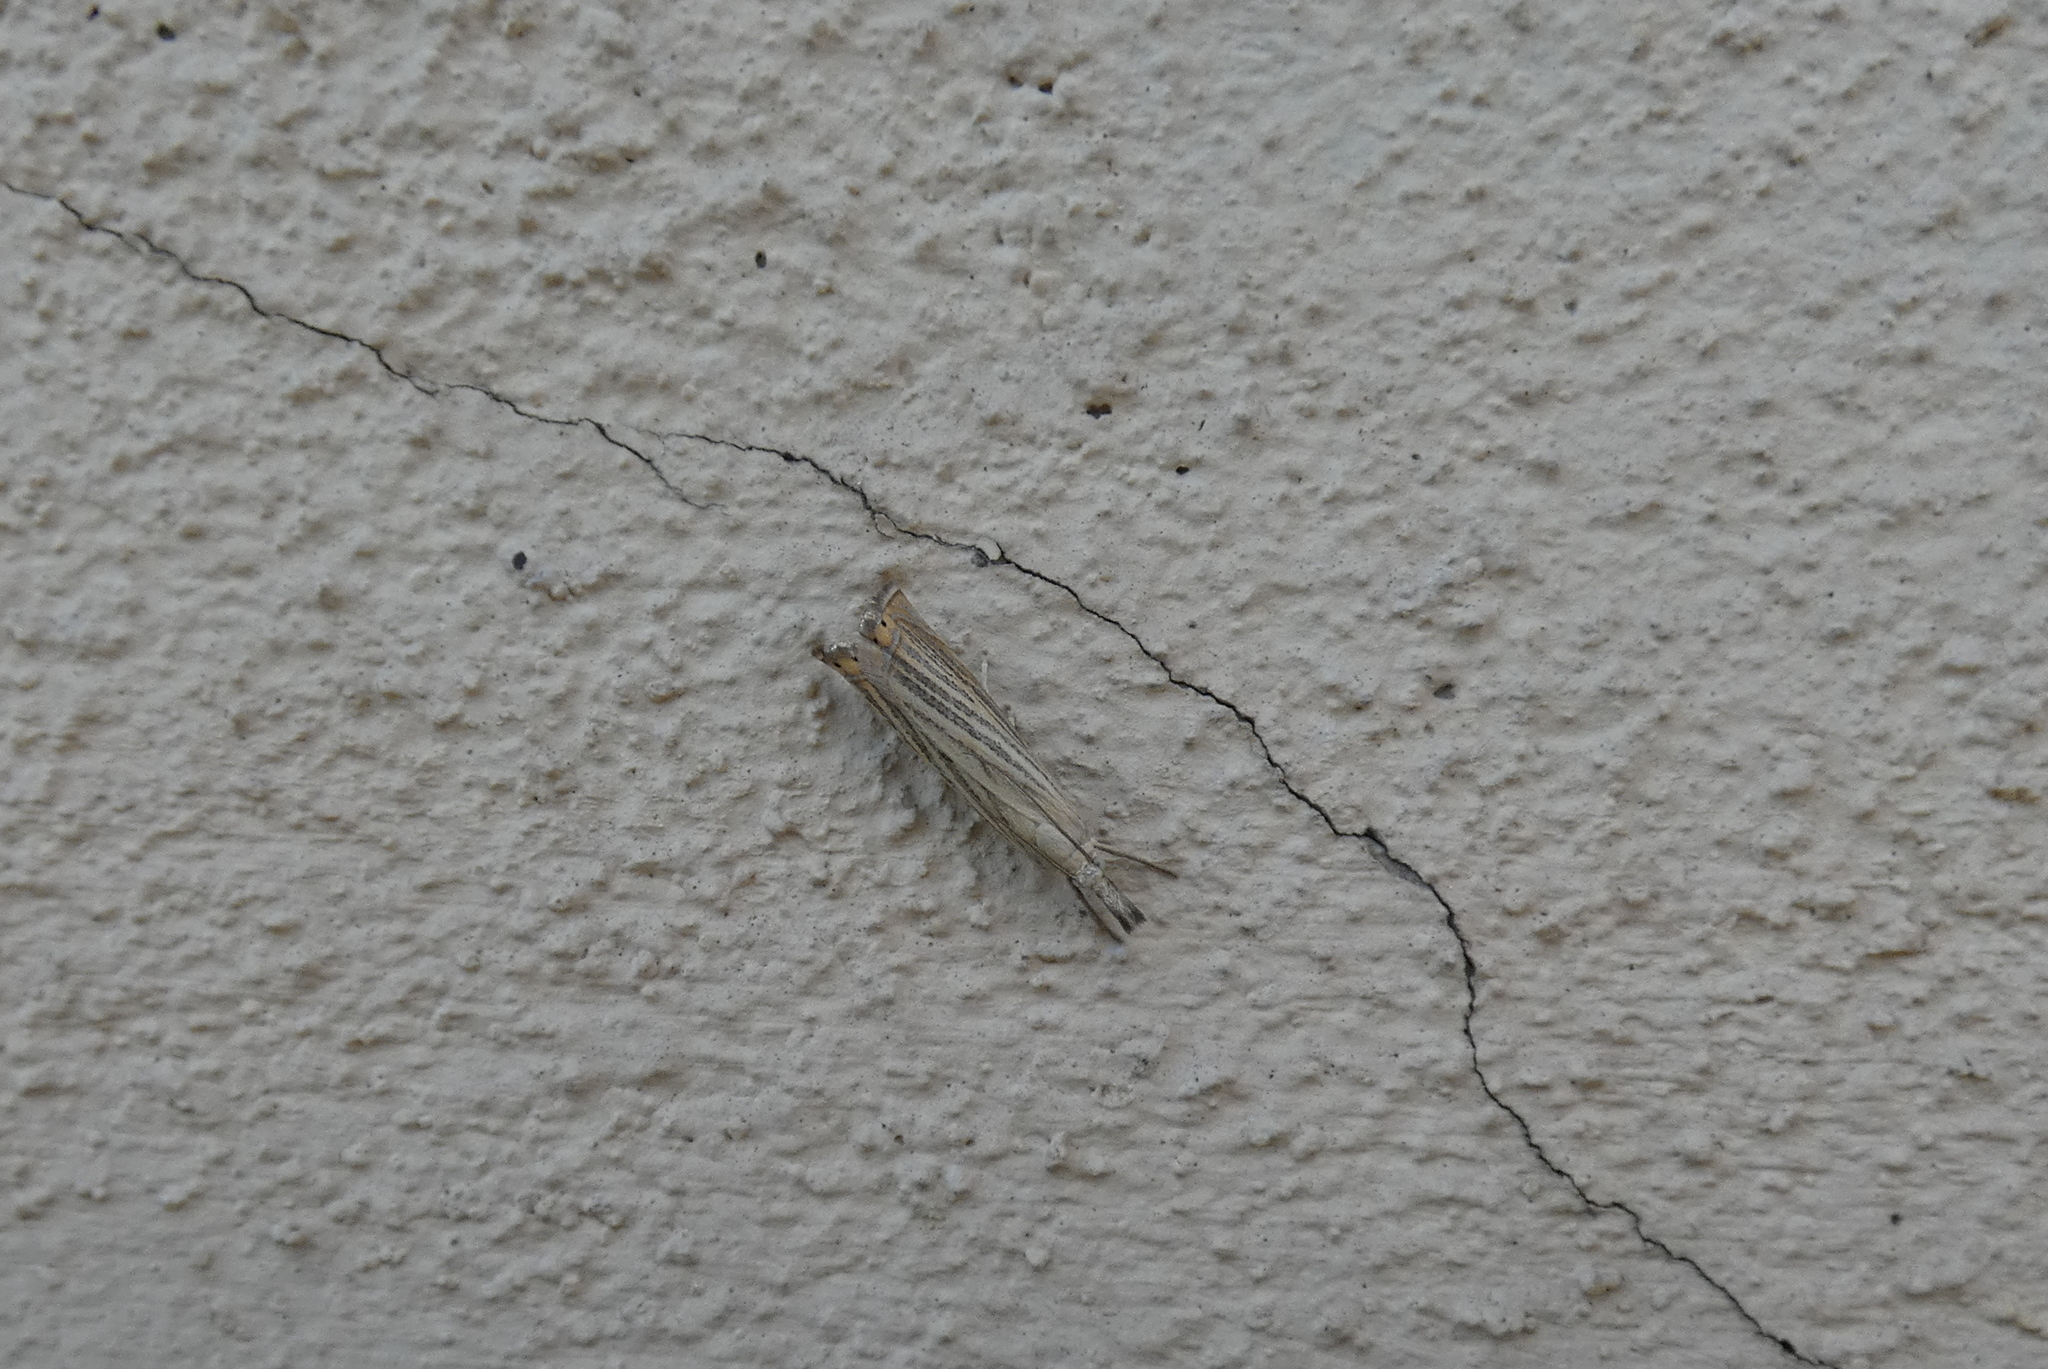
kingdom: Animalia
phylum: Arthropoda
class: Insecta
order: Lepidoptera
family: Crambidae
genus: Chrysoteuchia
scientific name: Chrysoteuchia culmella
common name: Garden grass-veneer
